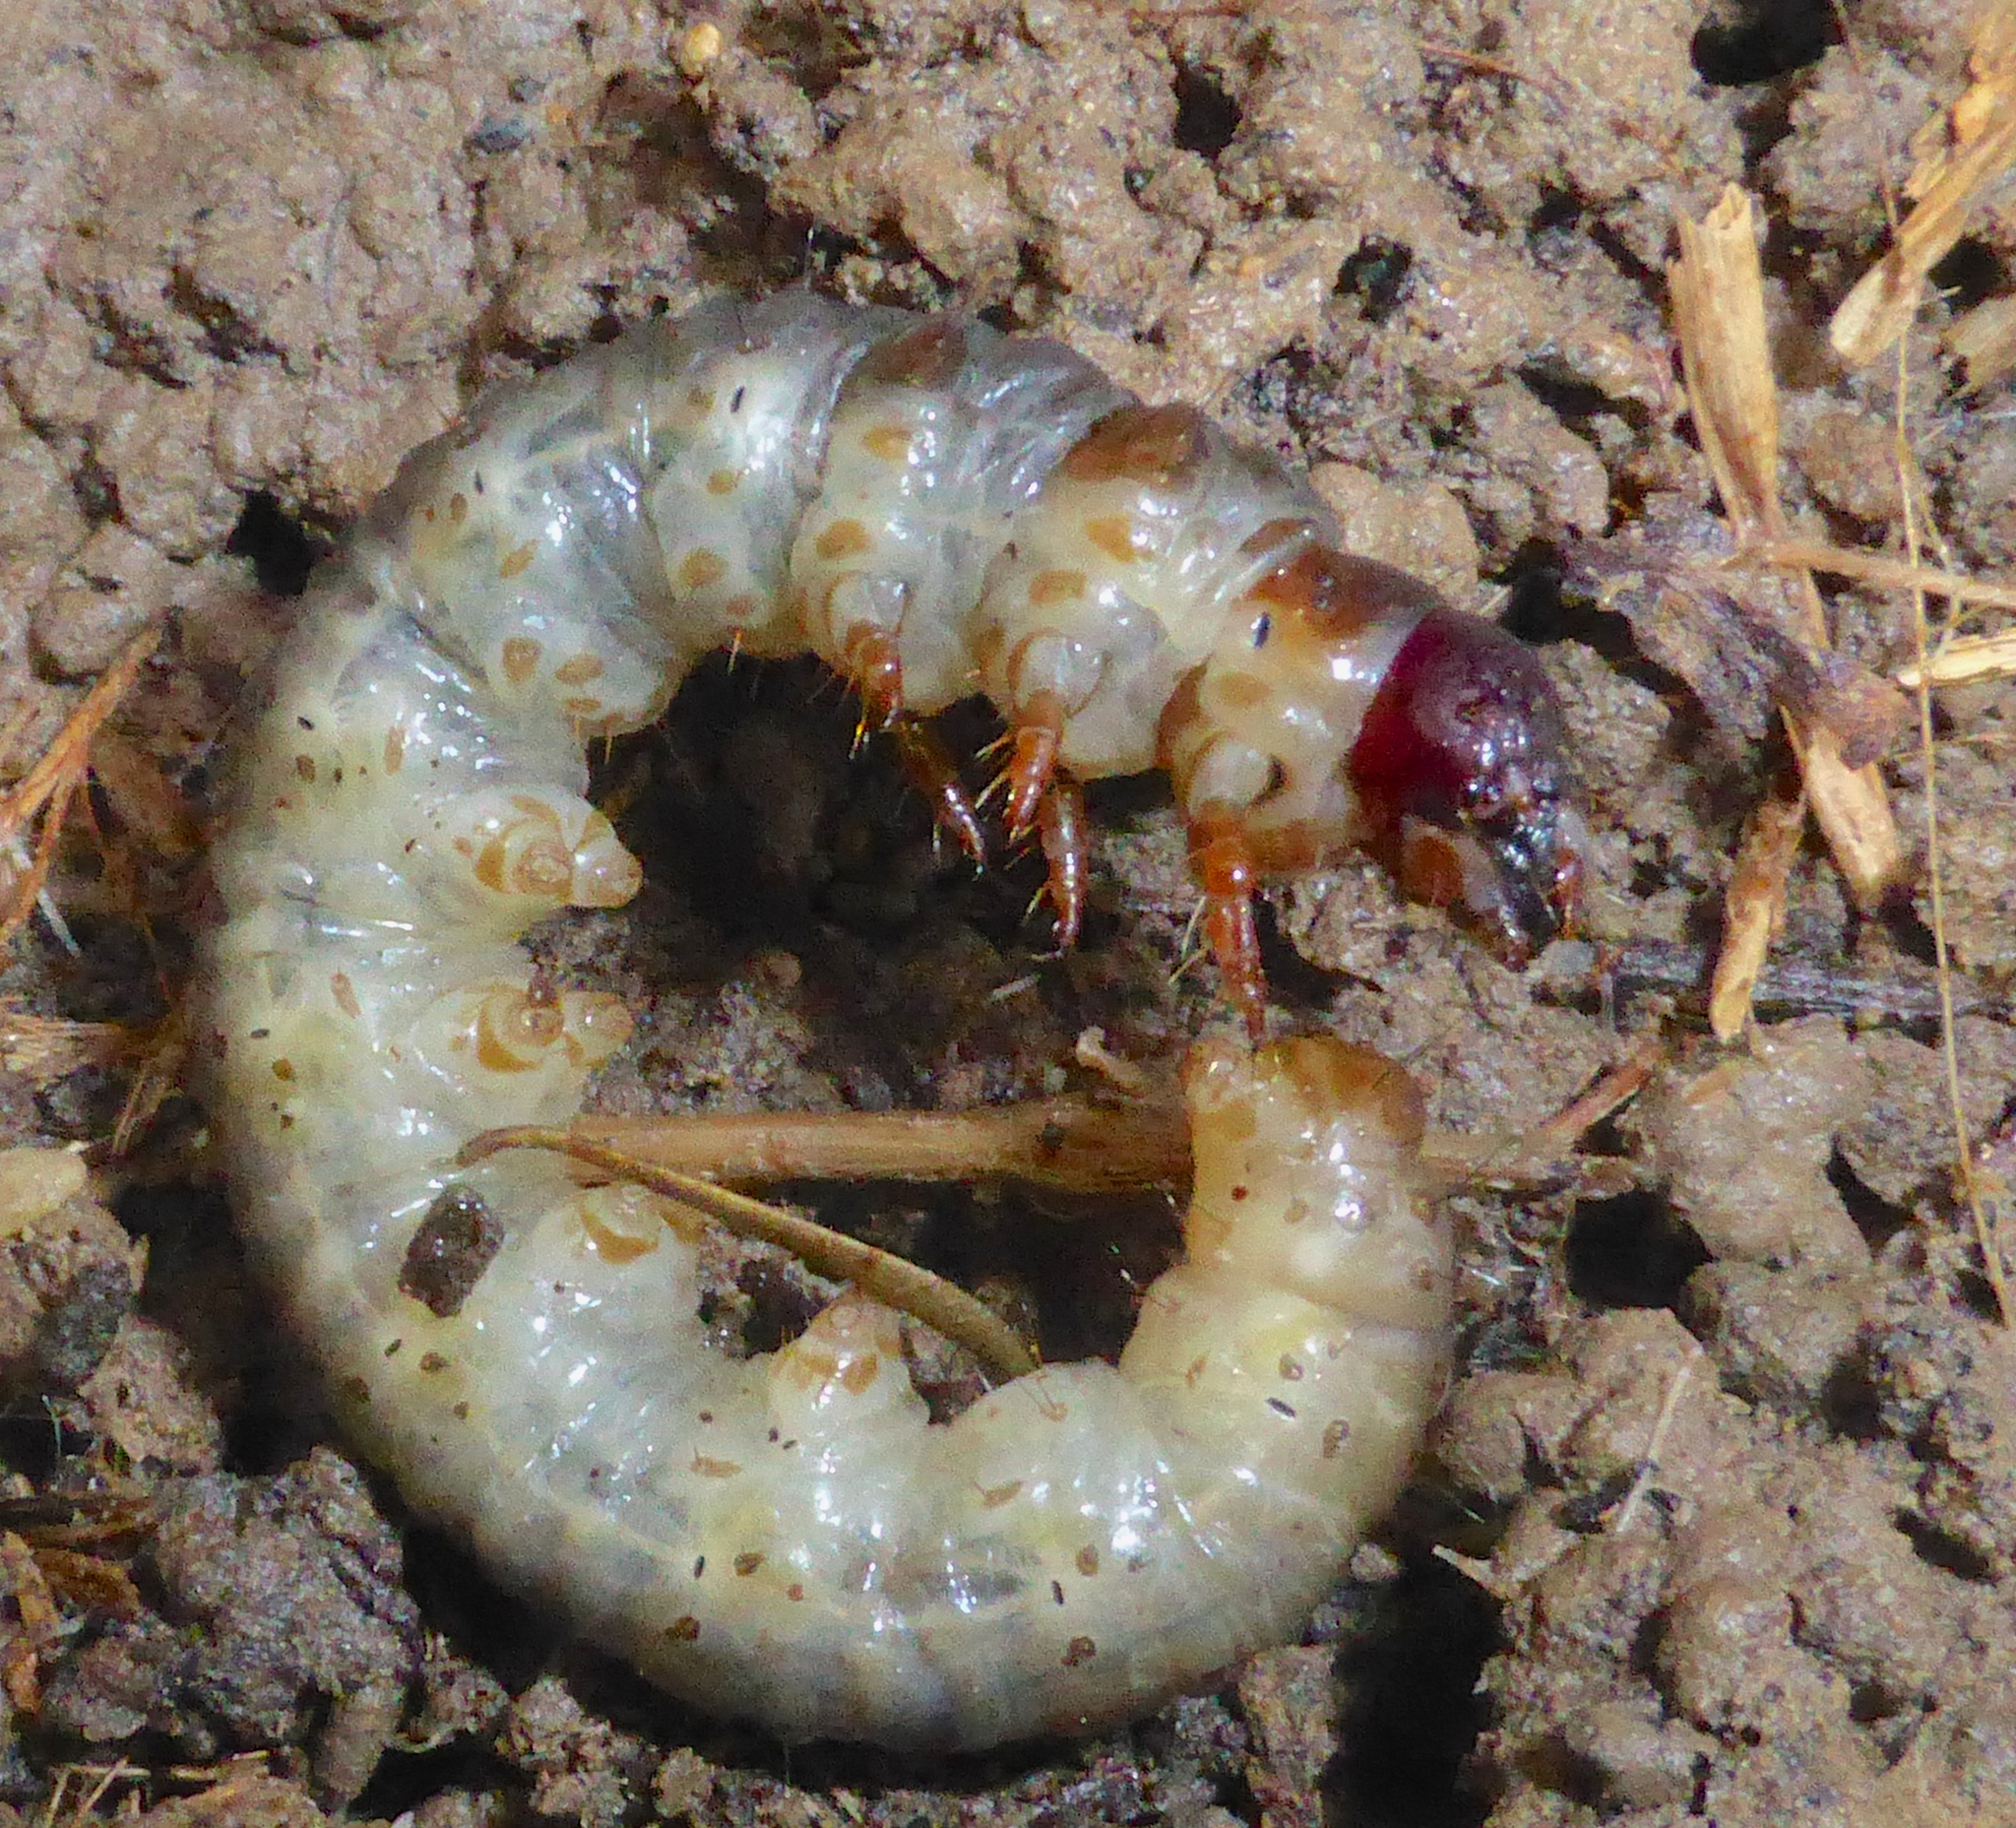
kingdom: Animalia
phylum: Arthropoda
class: Insecta
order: Lepidoptera
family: Hepialidae
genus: Wiseana
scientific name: Wiseana
